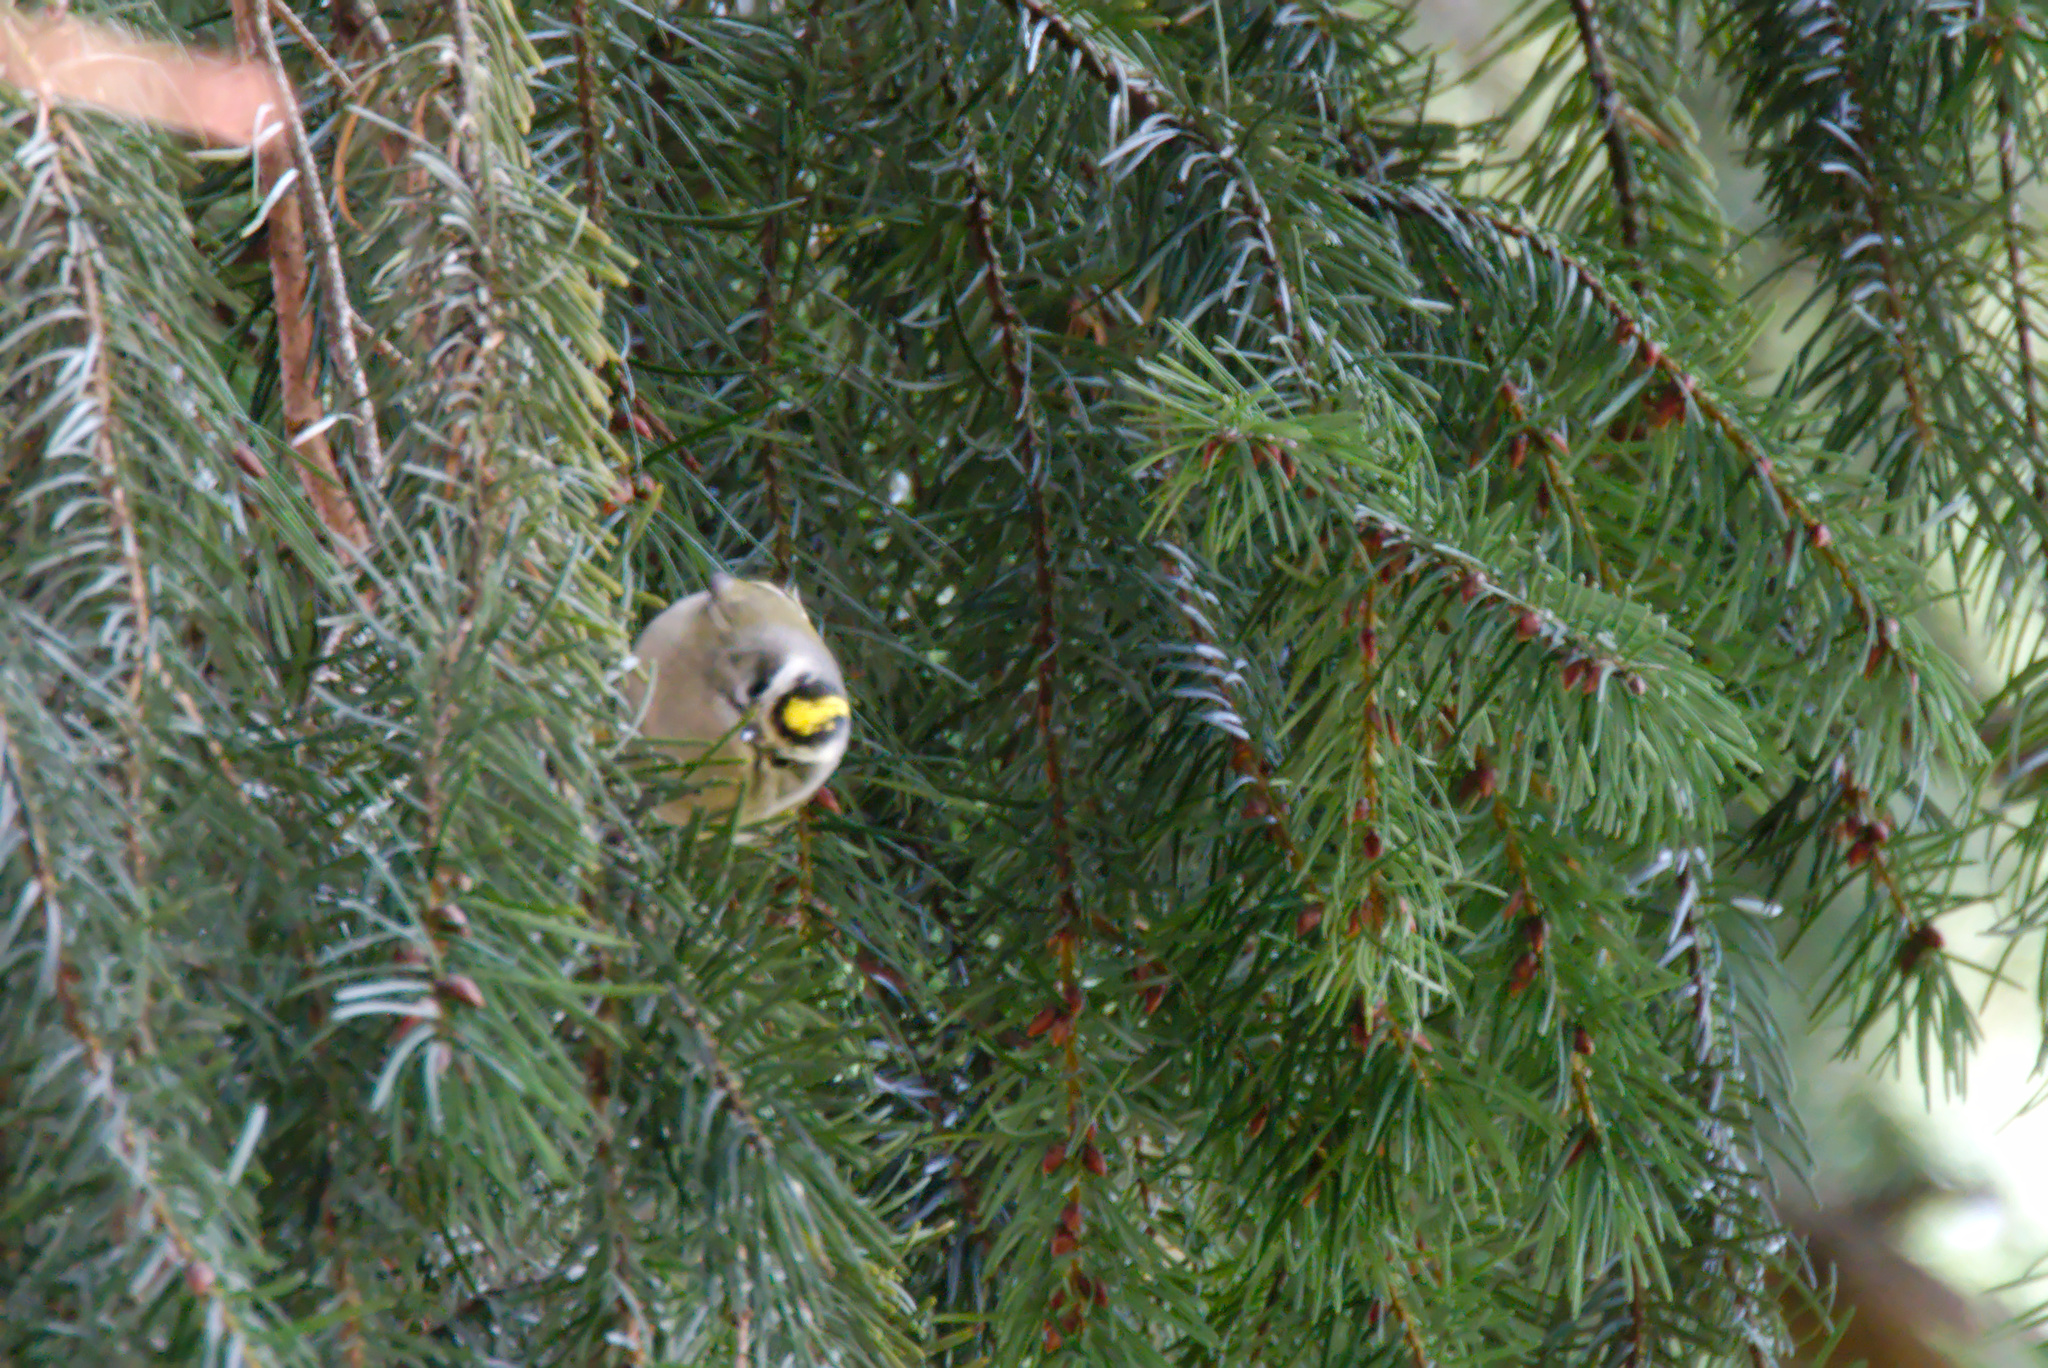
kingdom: Animalia
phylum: Chordata
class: Aves
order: Passeriformes
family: Regulidae
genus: Regulus
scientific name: Regulus satrapa
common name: Golden-crowned kinglet
